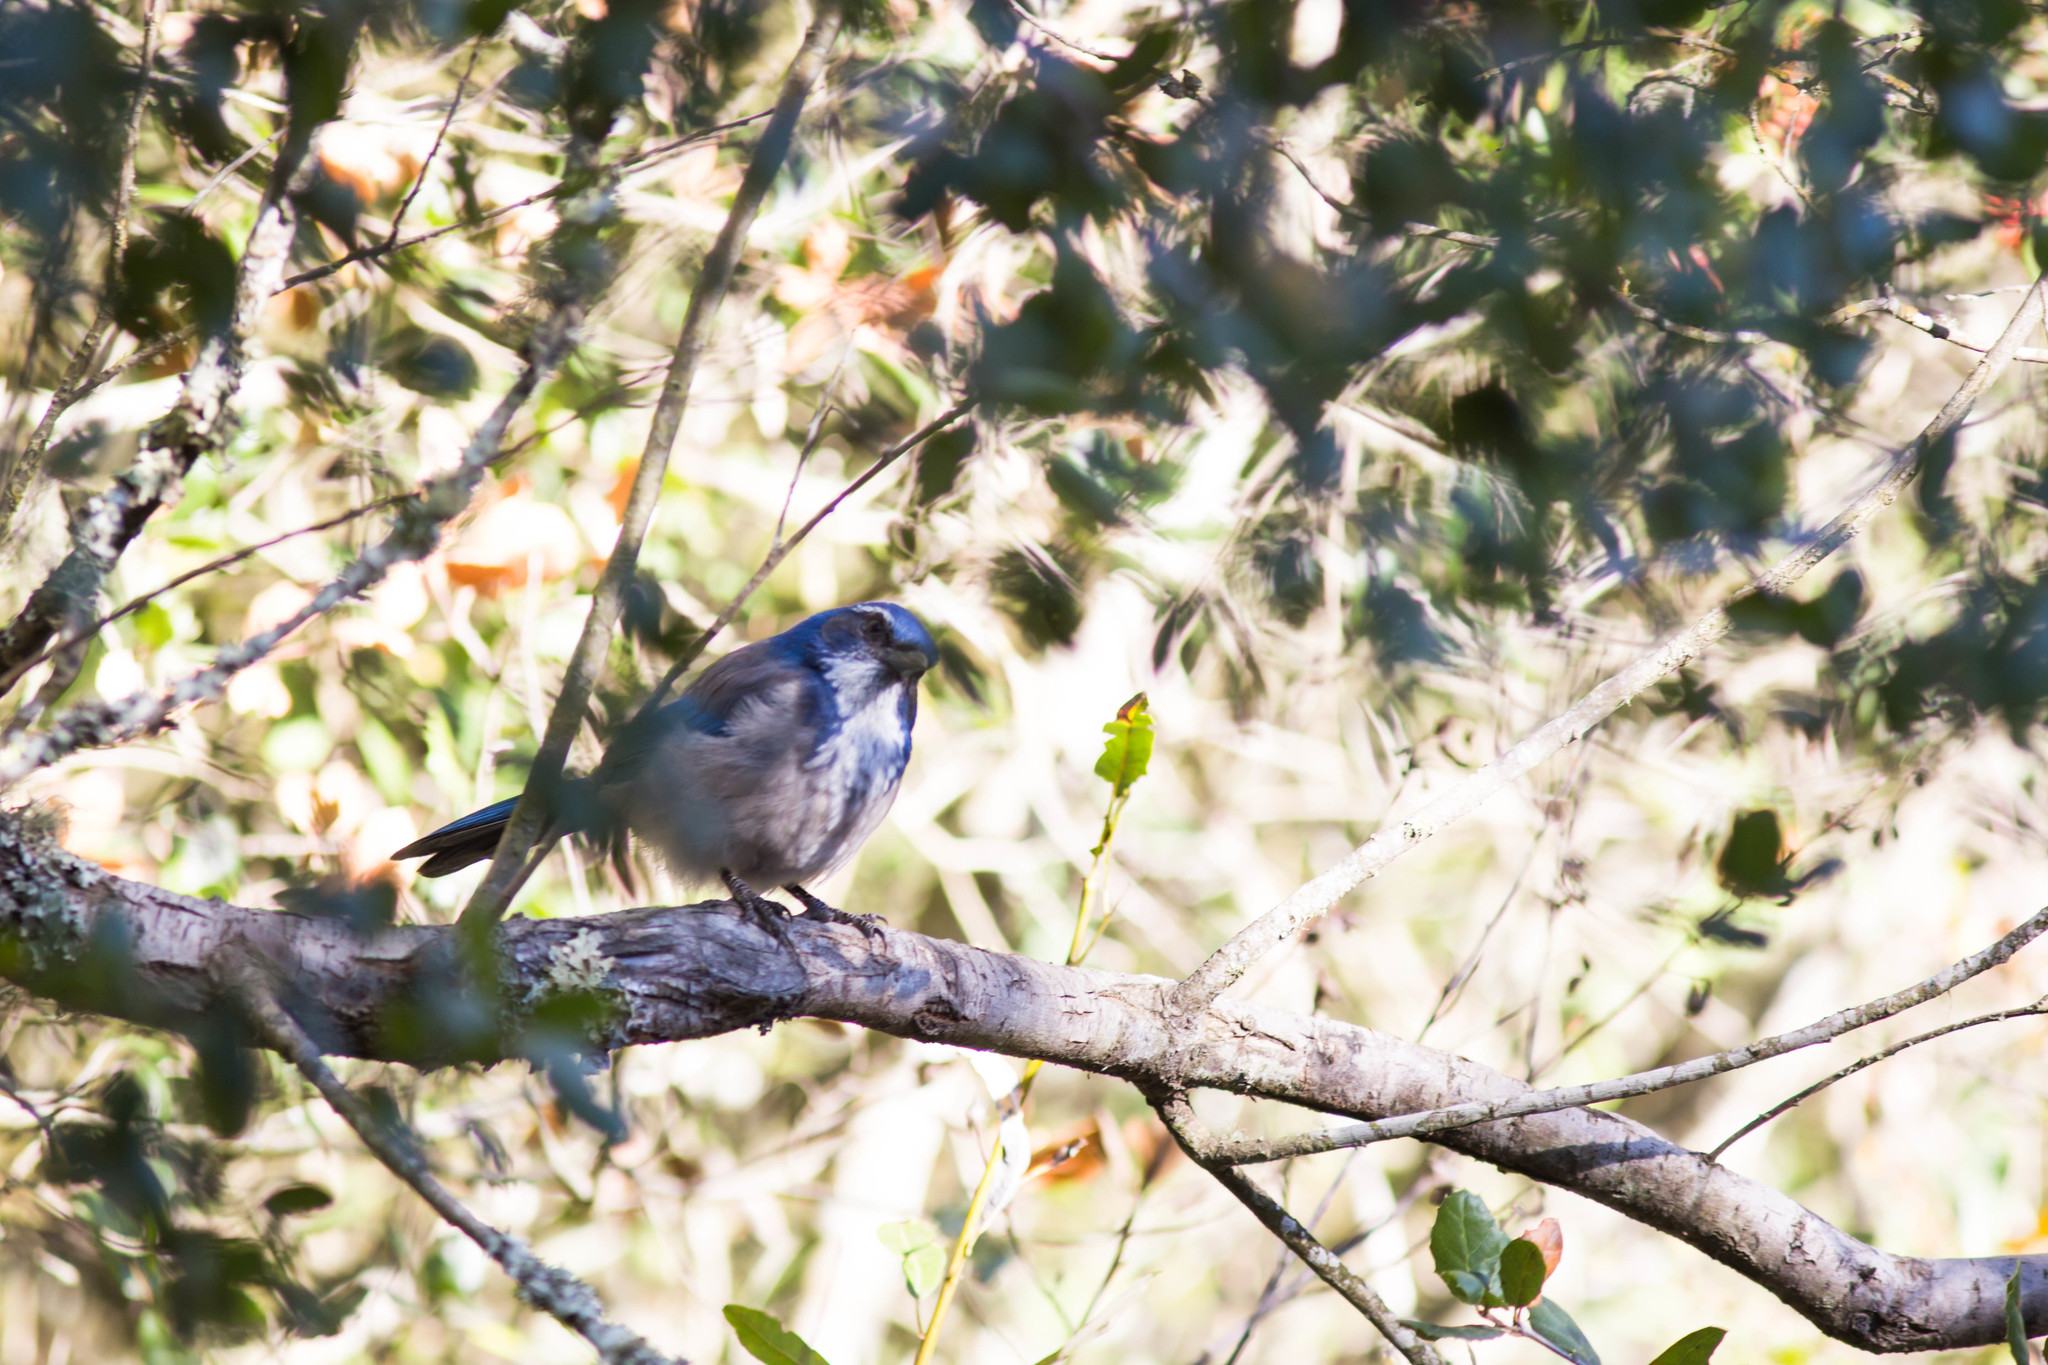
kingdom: Animalia
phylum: Chordata
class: Aves
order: Passeriformes
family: Corvidae
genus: Aphelocoma
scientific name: Aphelocoma californica
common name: California scrub-jay
